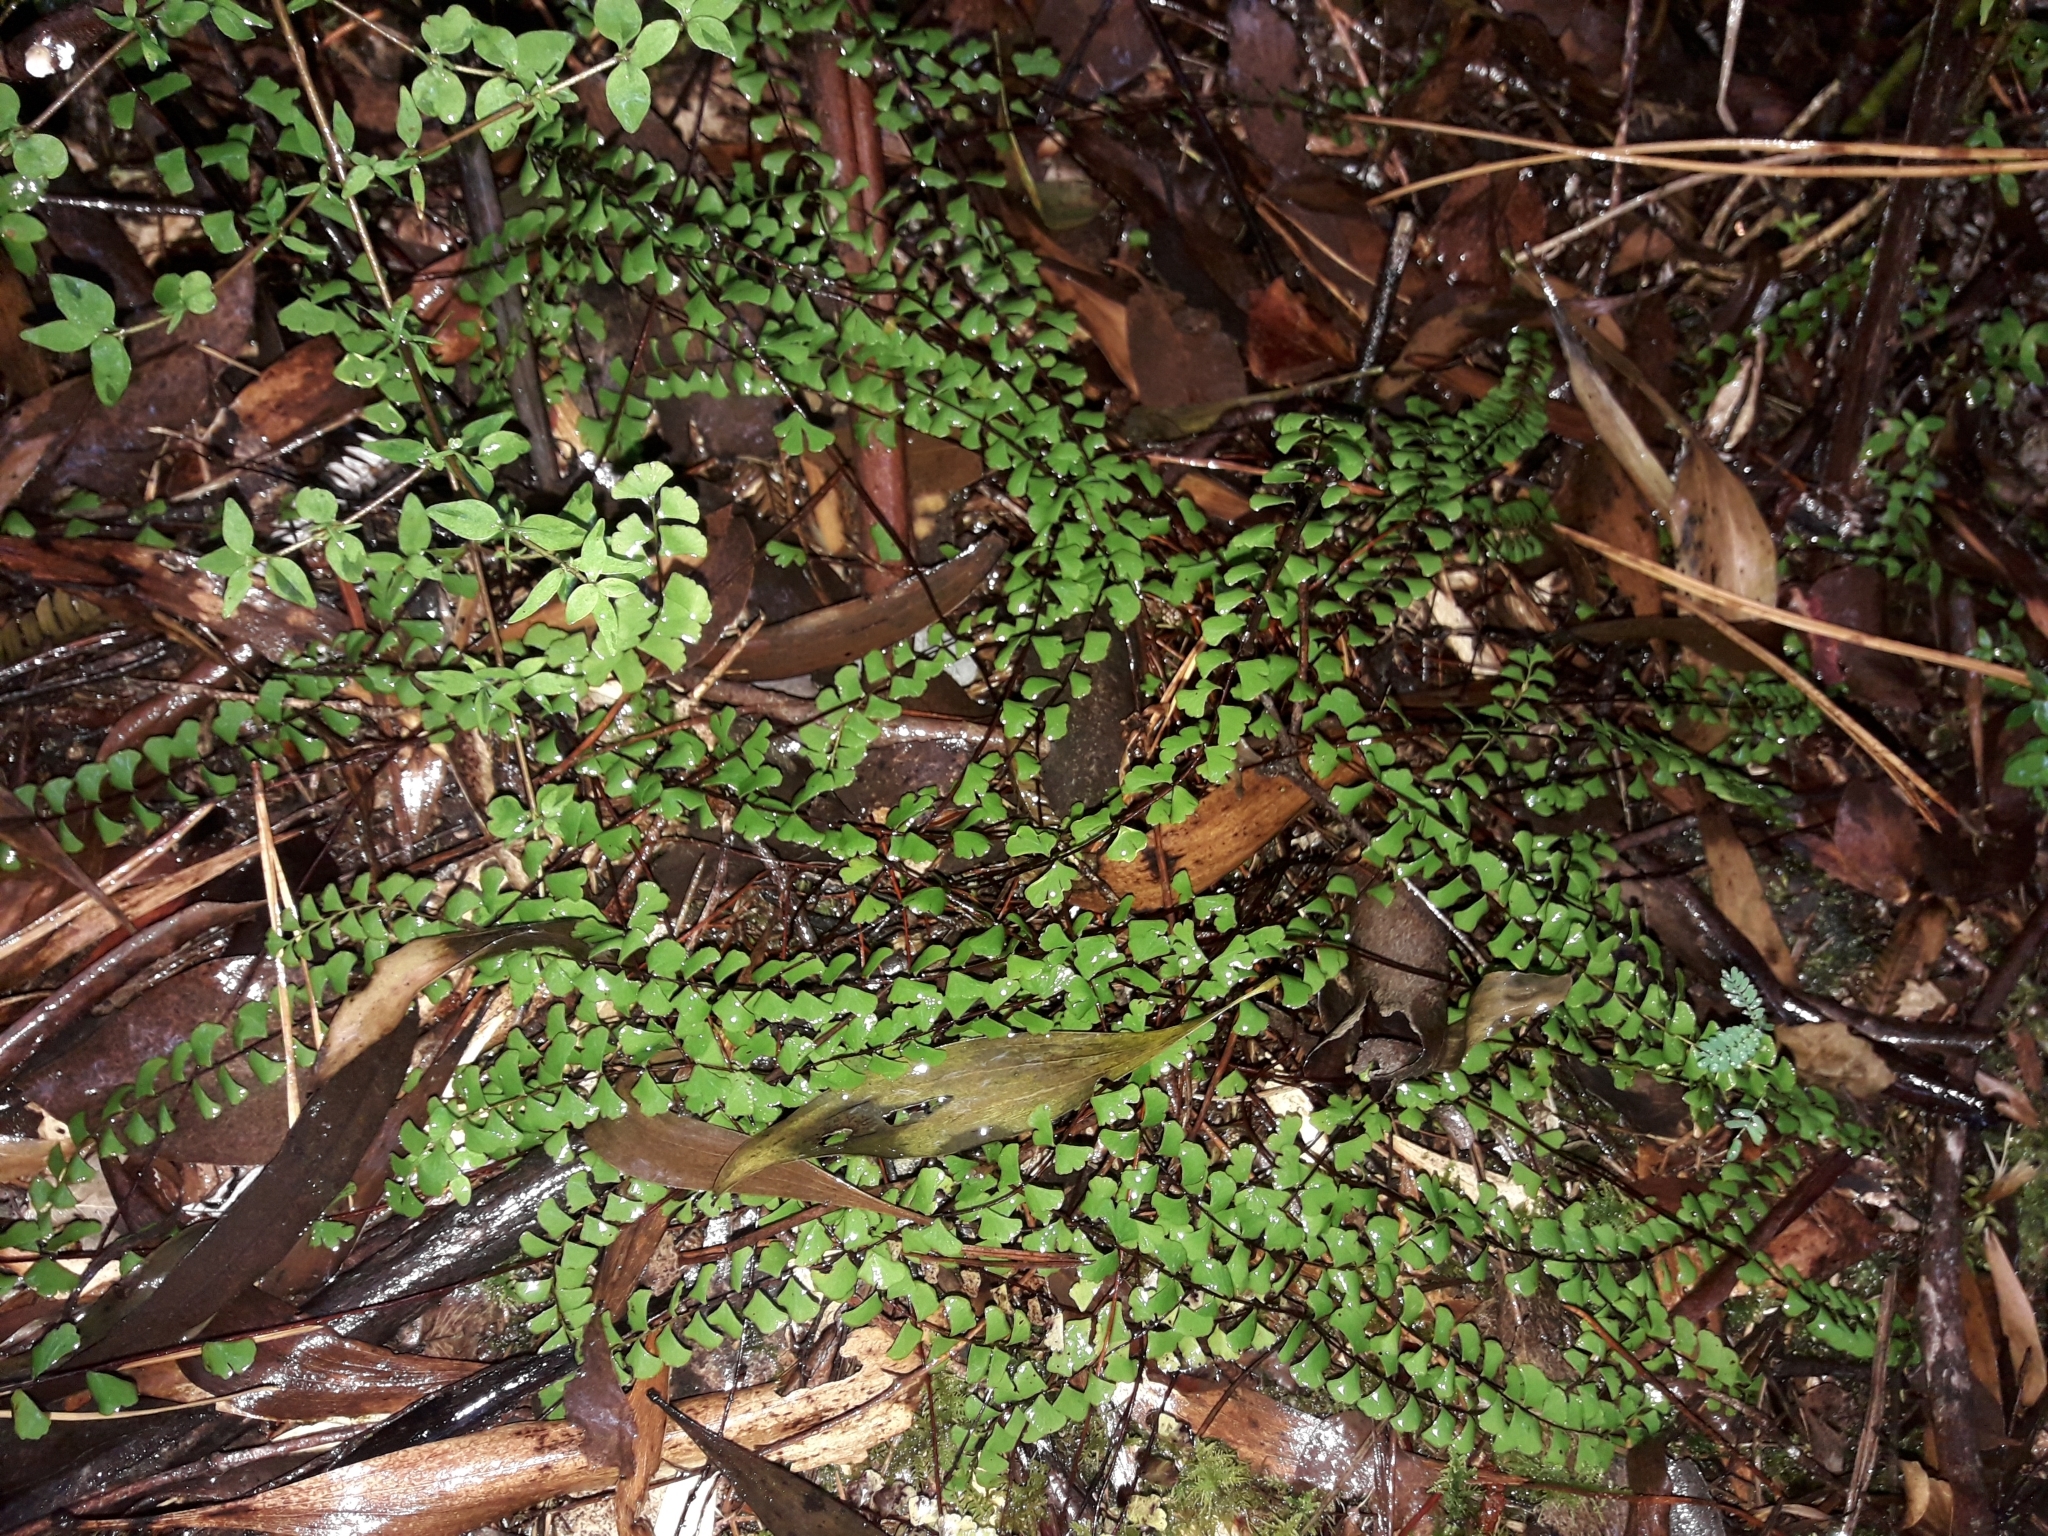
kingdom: Plantae
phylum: Tracheophyta
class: Polypodiopsida
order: Polypodiales
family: Lindsaeaceae
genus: Lindsaea
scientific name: Lindsaea linearis
